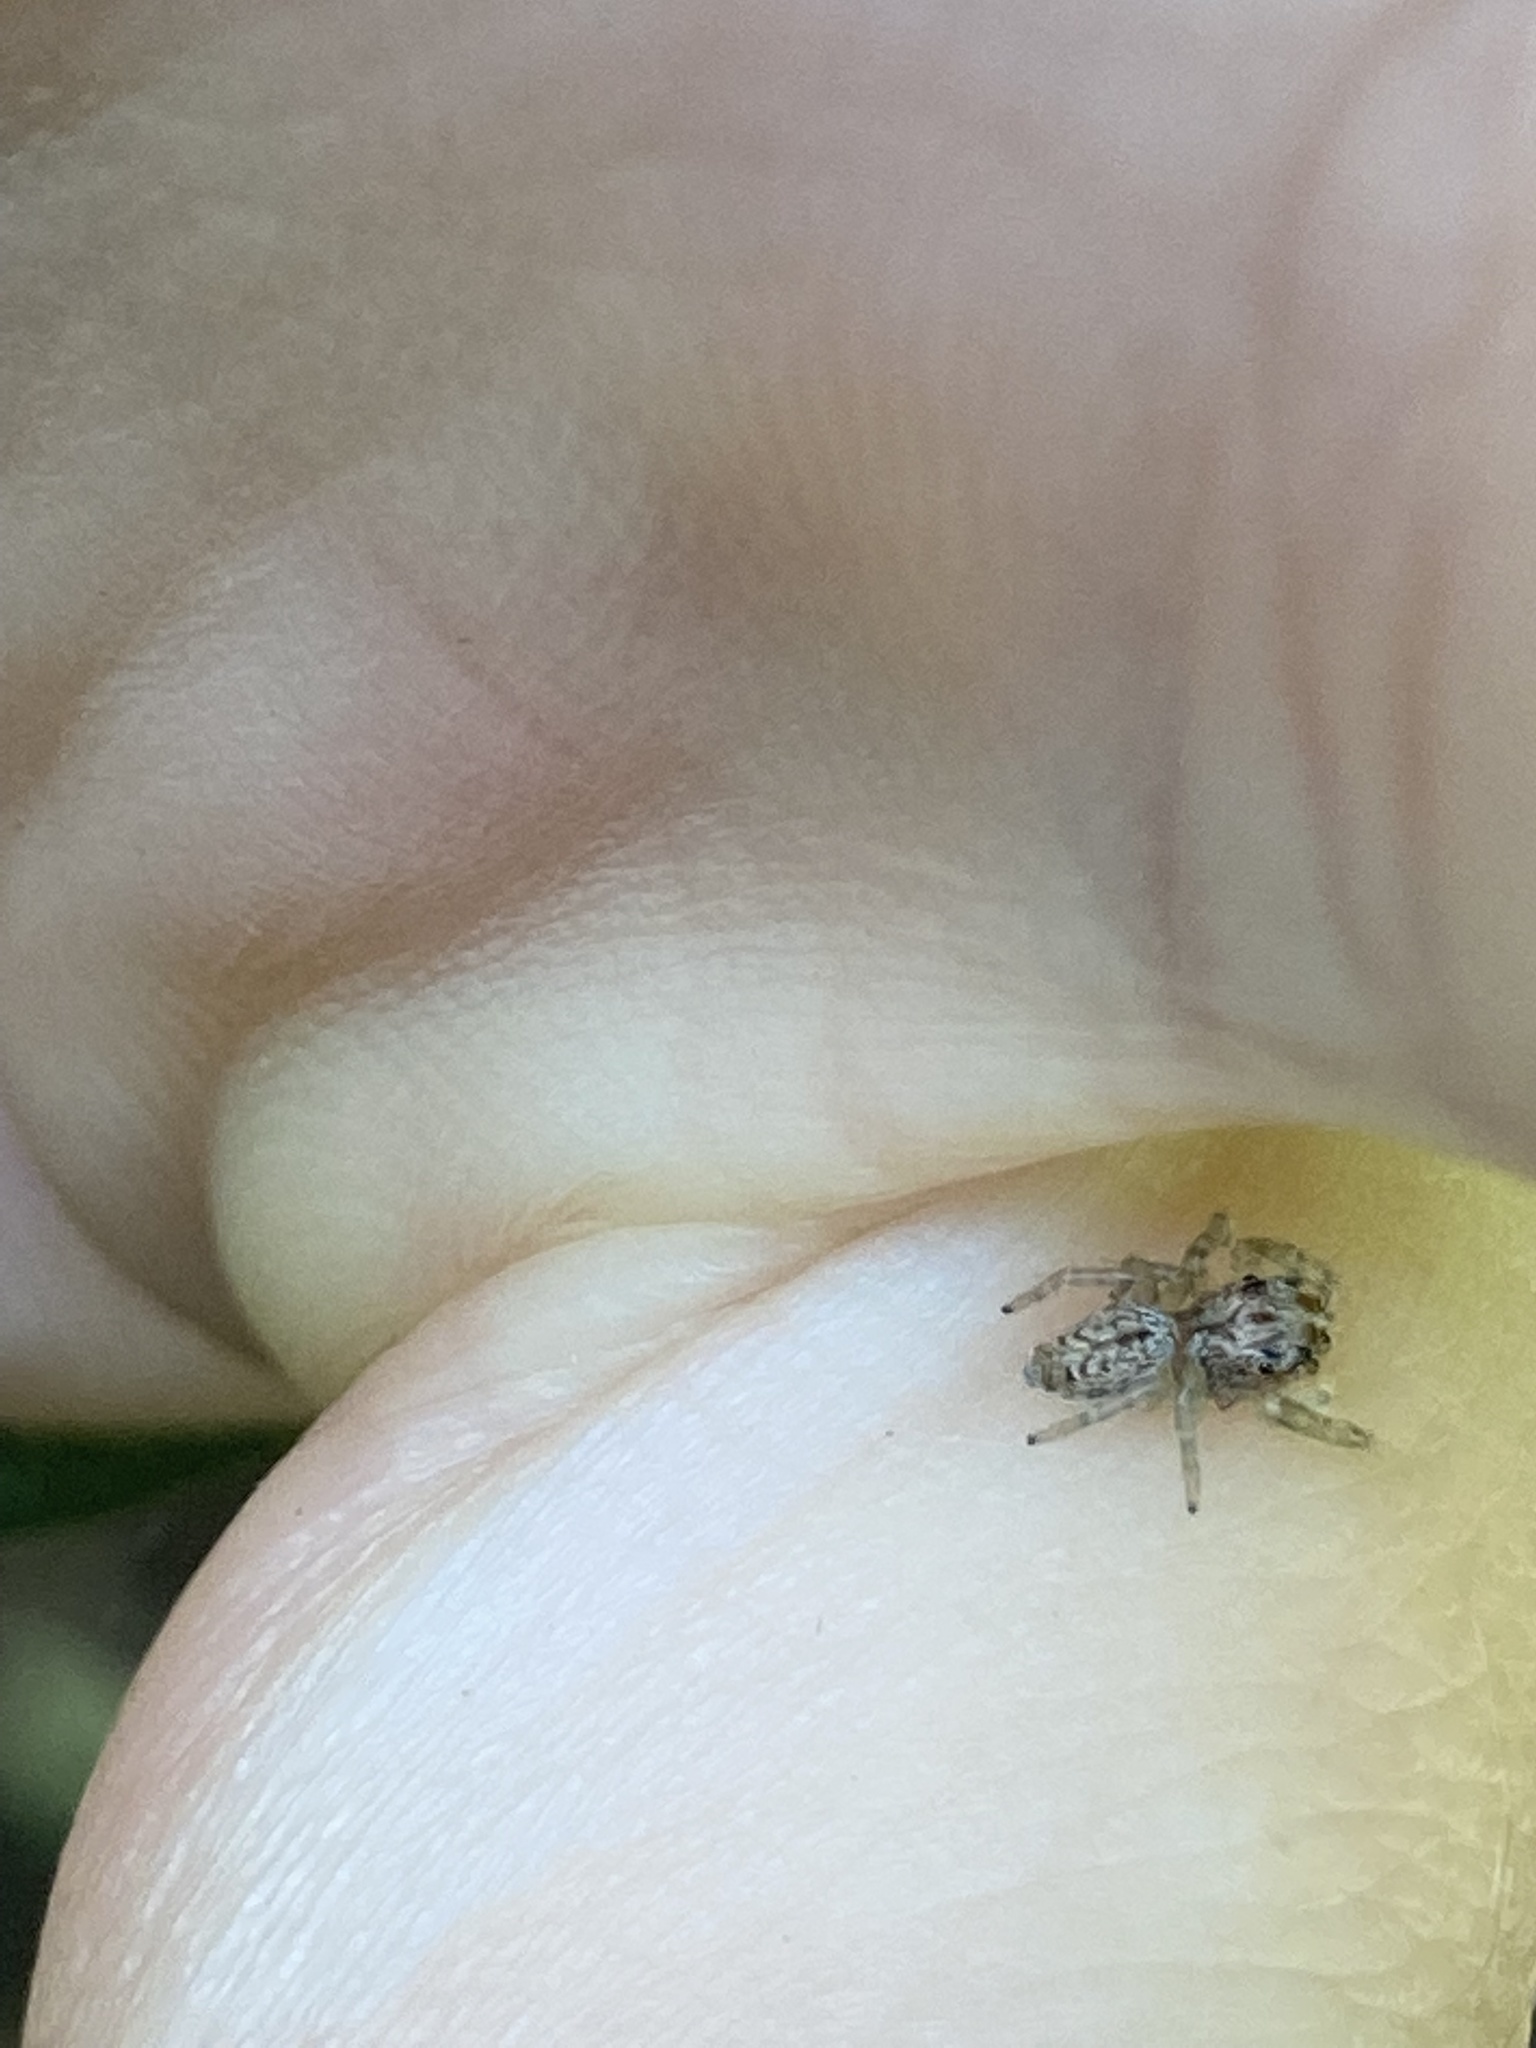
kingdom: Animalia
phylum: Arthropoda
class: Arachnida
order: Araneae
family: Salticidae
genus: Opisthoncus
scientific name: Opisthoncus polyphemus
